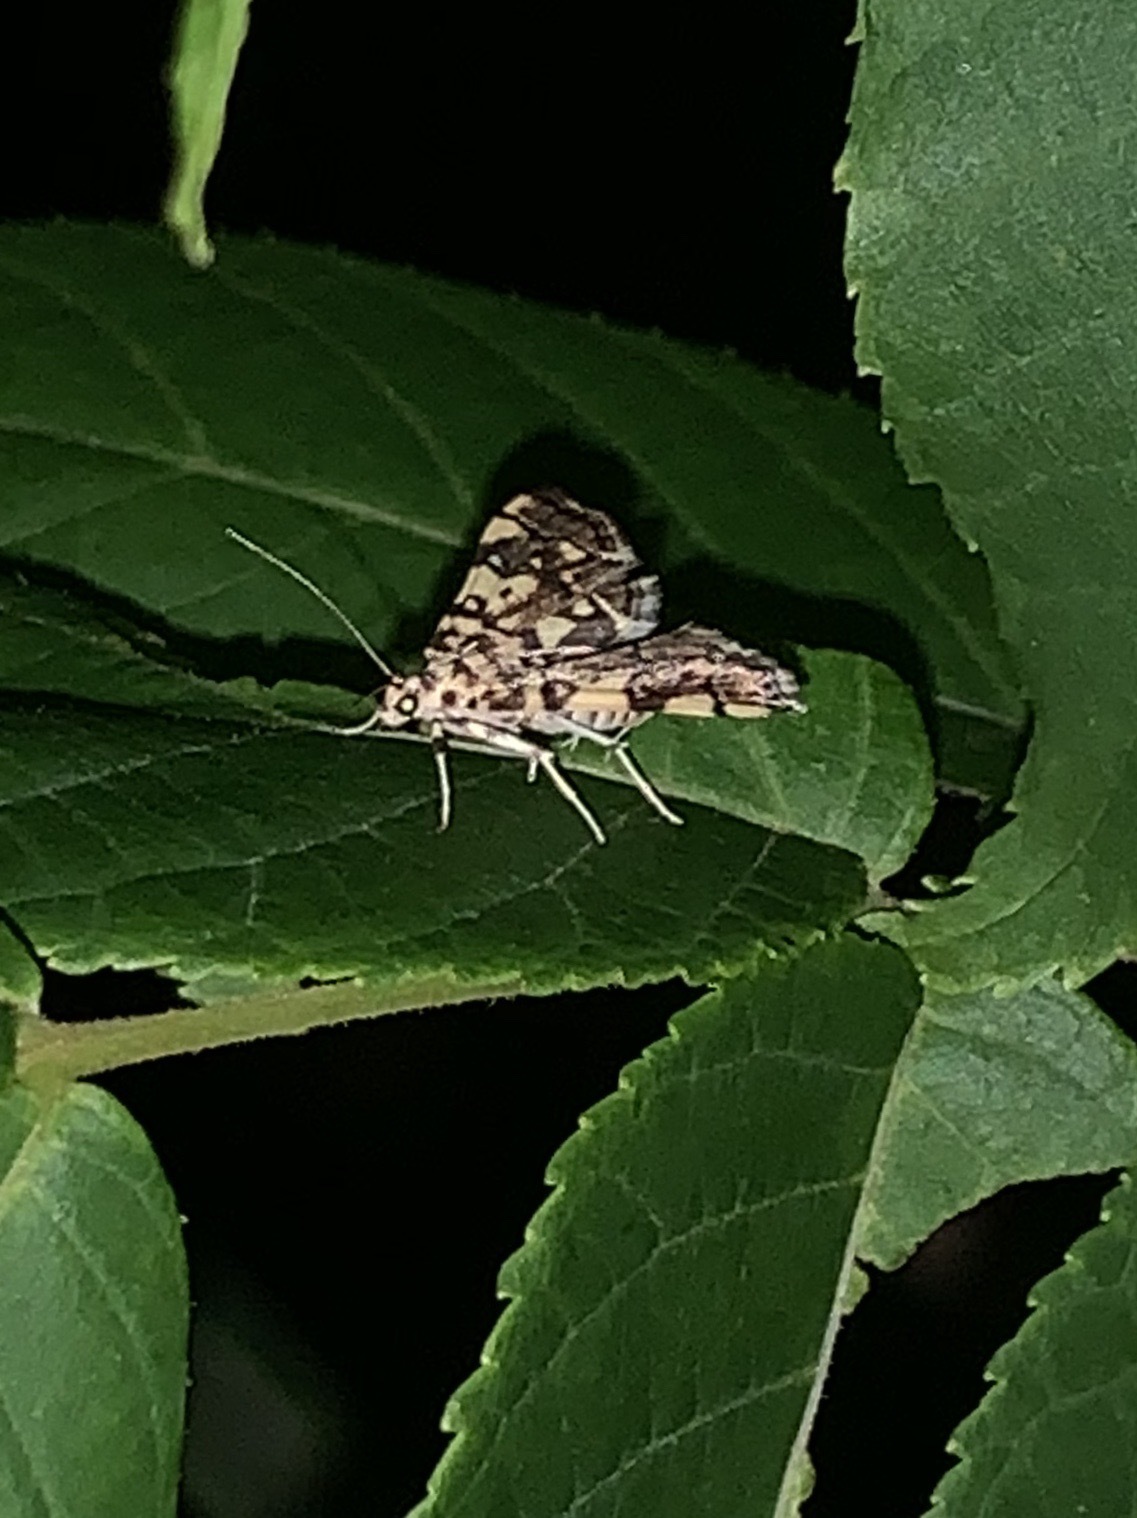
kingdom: Animalia
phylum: Arthropoda
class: Insecta
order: Lepidoptera
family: Crambidae
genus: Apogeshna
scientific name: Apogeshna stenialis
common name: Checkered apogeshna moth
